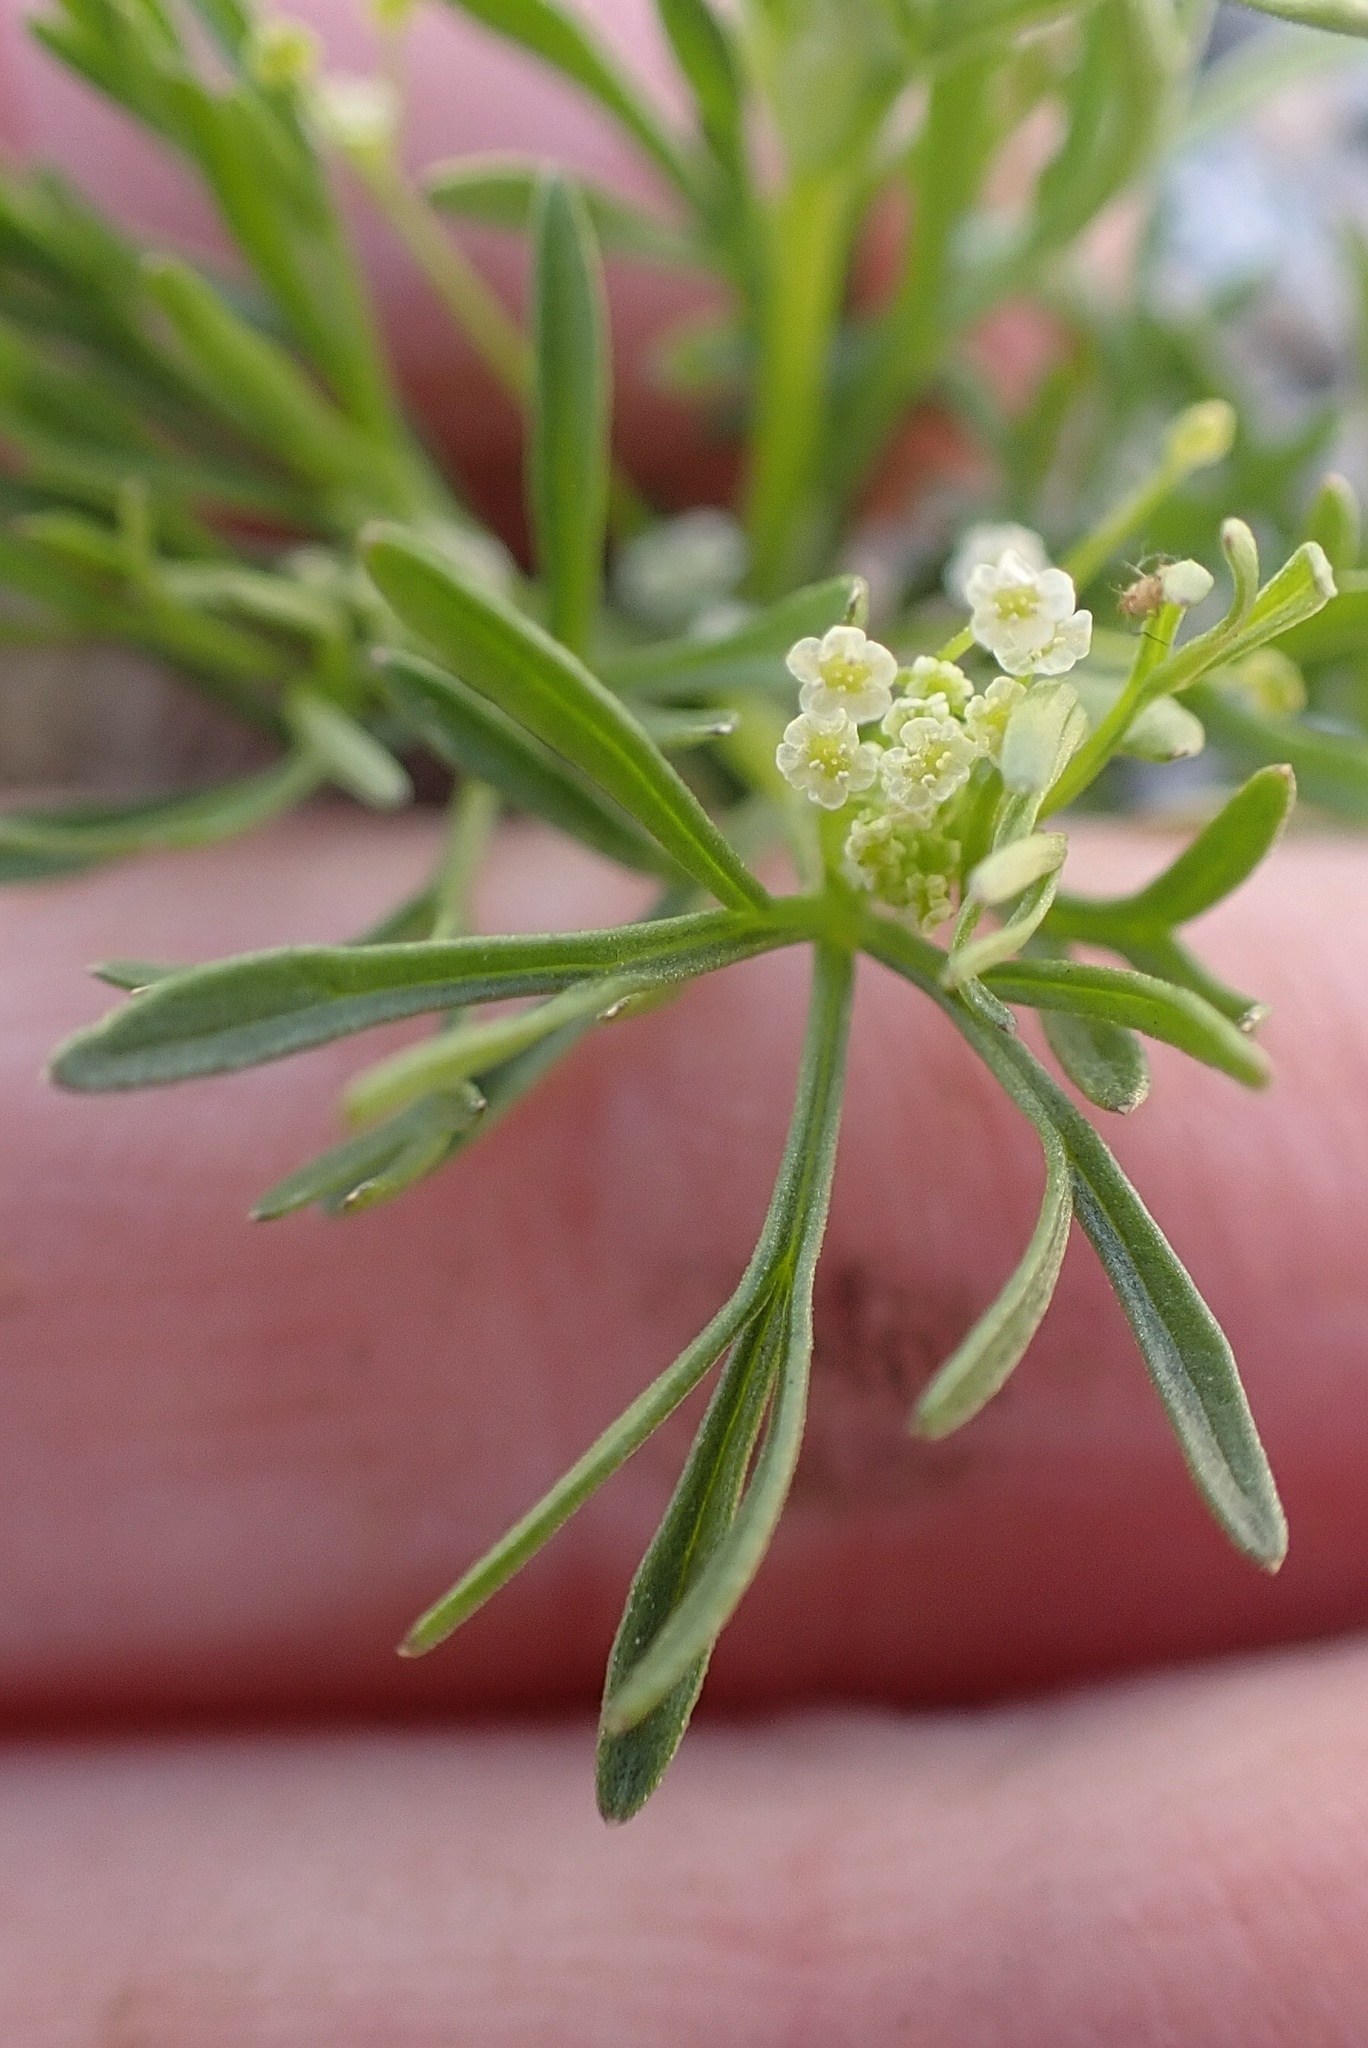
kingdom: Plantae
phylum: Tracheophyta
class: Magnoliopsida
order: Apiales
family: Apiaceae
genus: Apiastrum
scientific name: Apiastrum angustifolium
